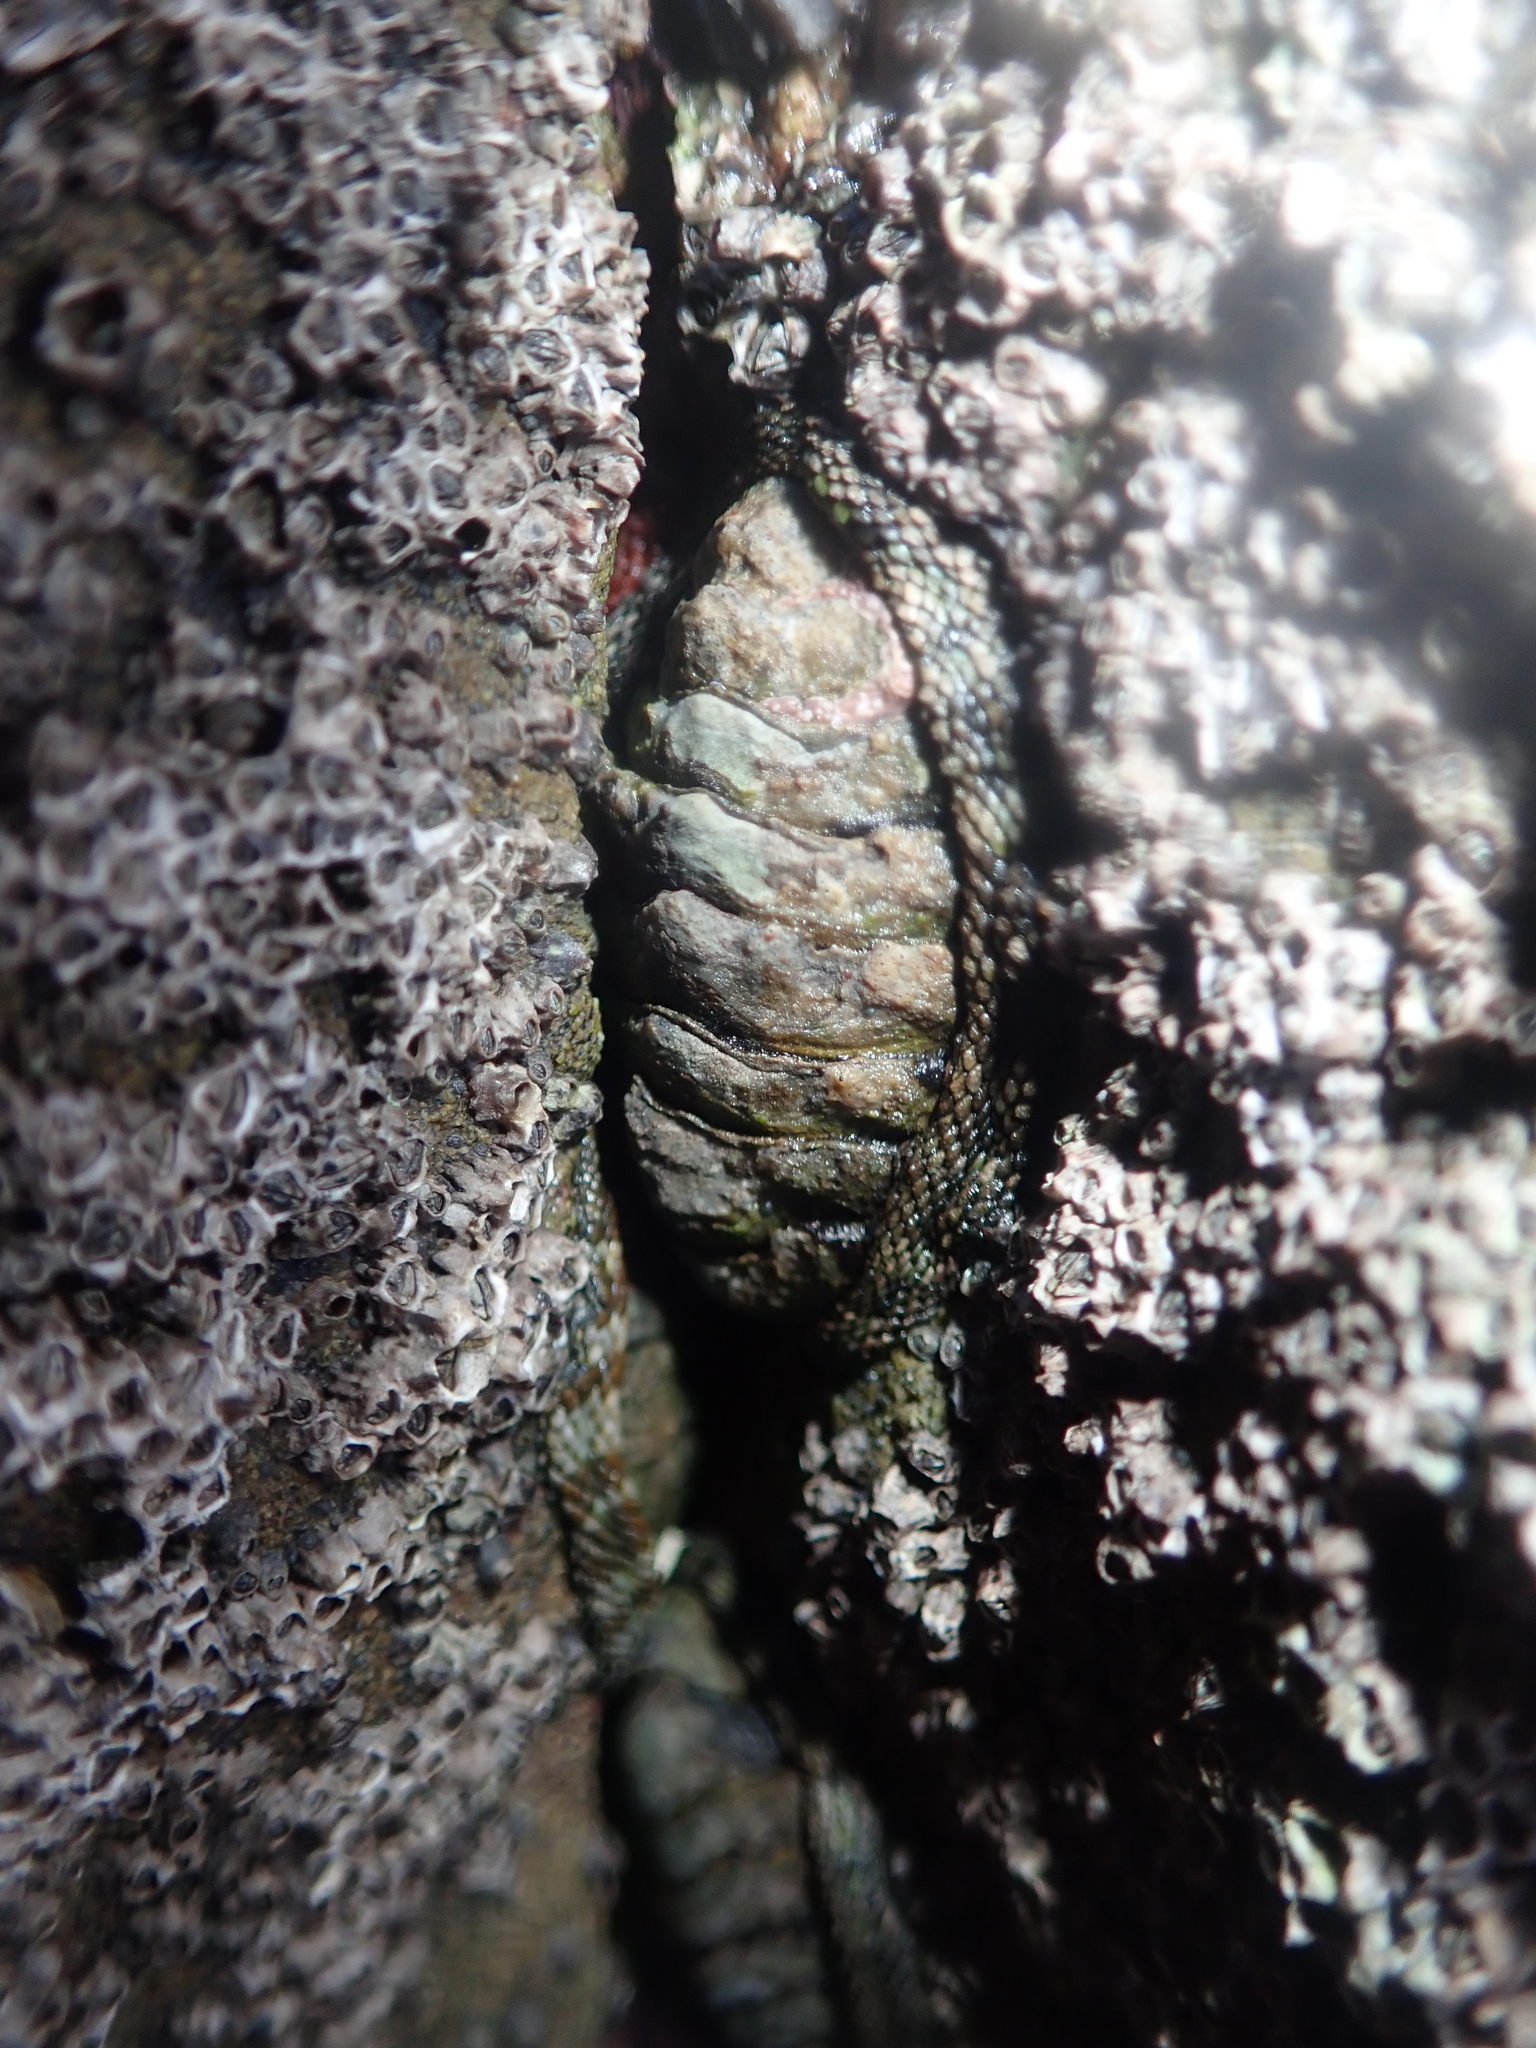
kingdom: Animalia
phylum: Mollusca
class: Polyplacophora
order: Chitonida
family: Chitonidae
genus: Sypharochiton
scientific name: Sypharochiton pelliserpentis
